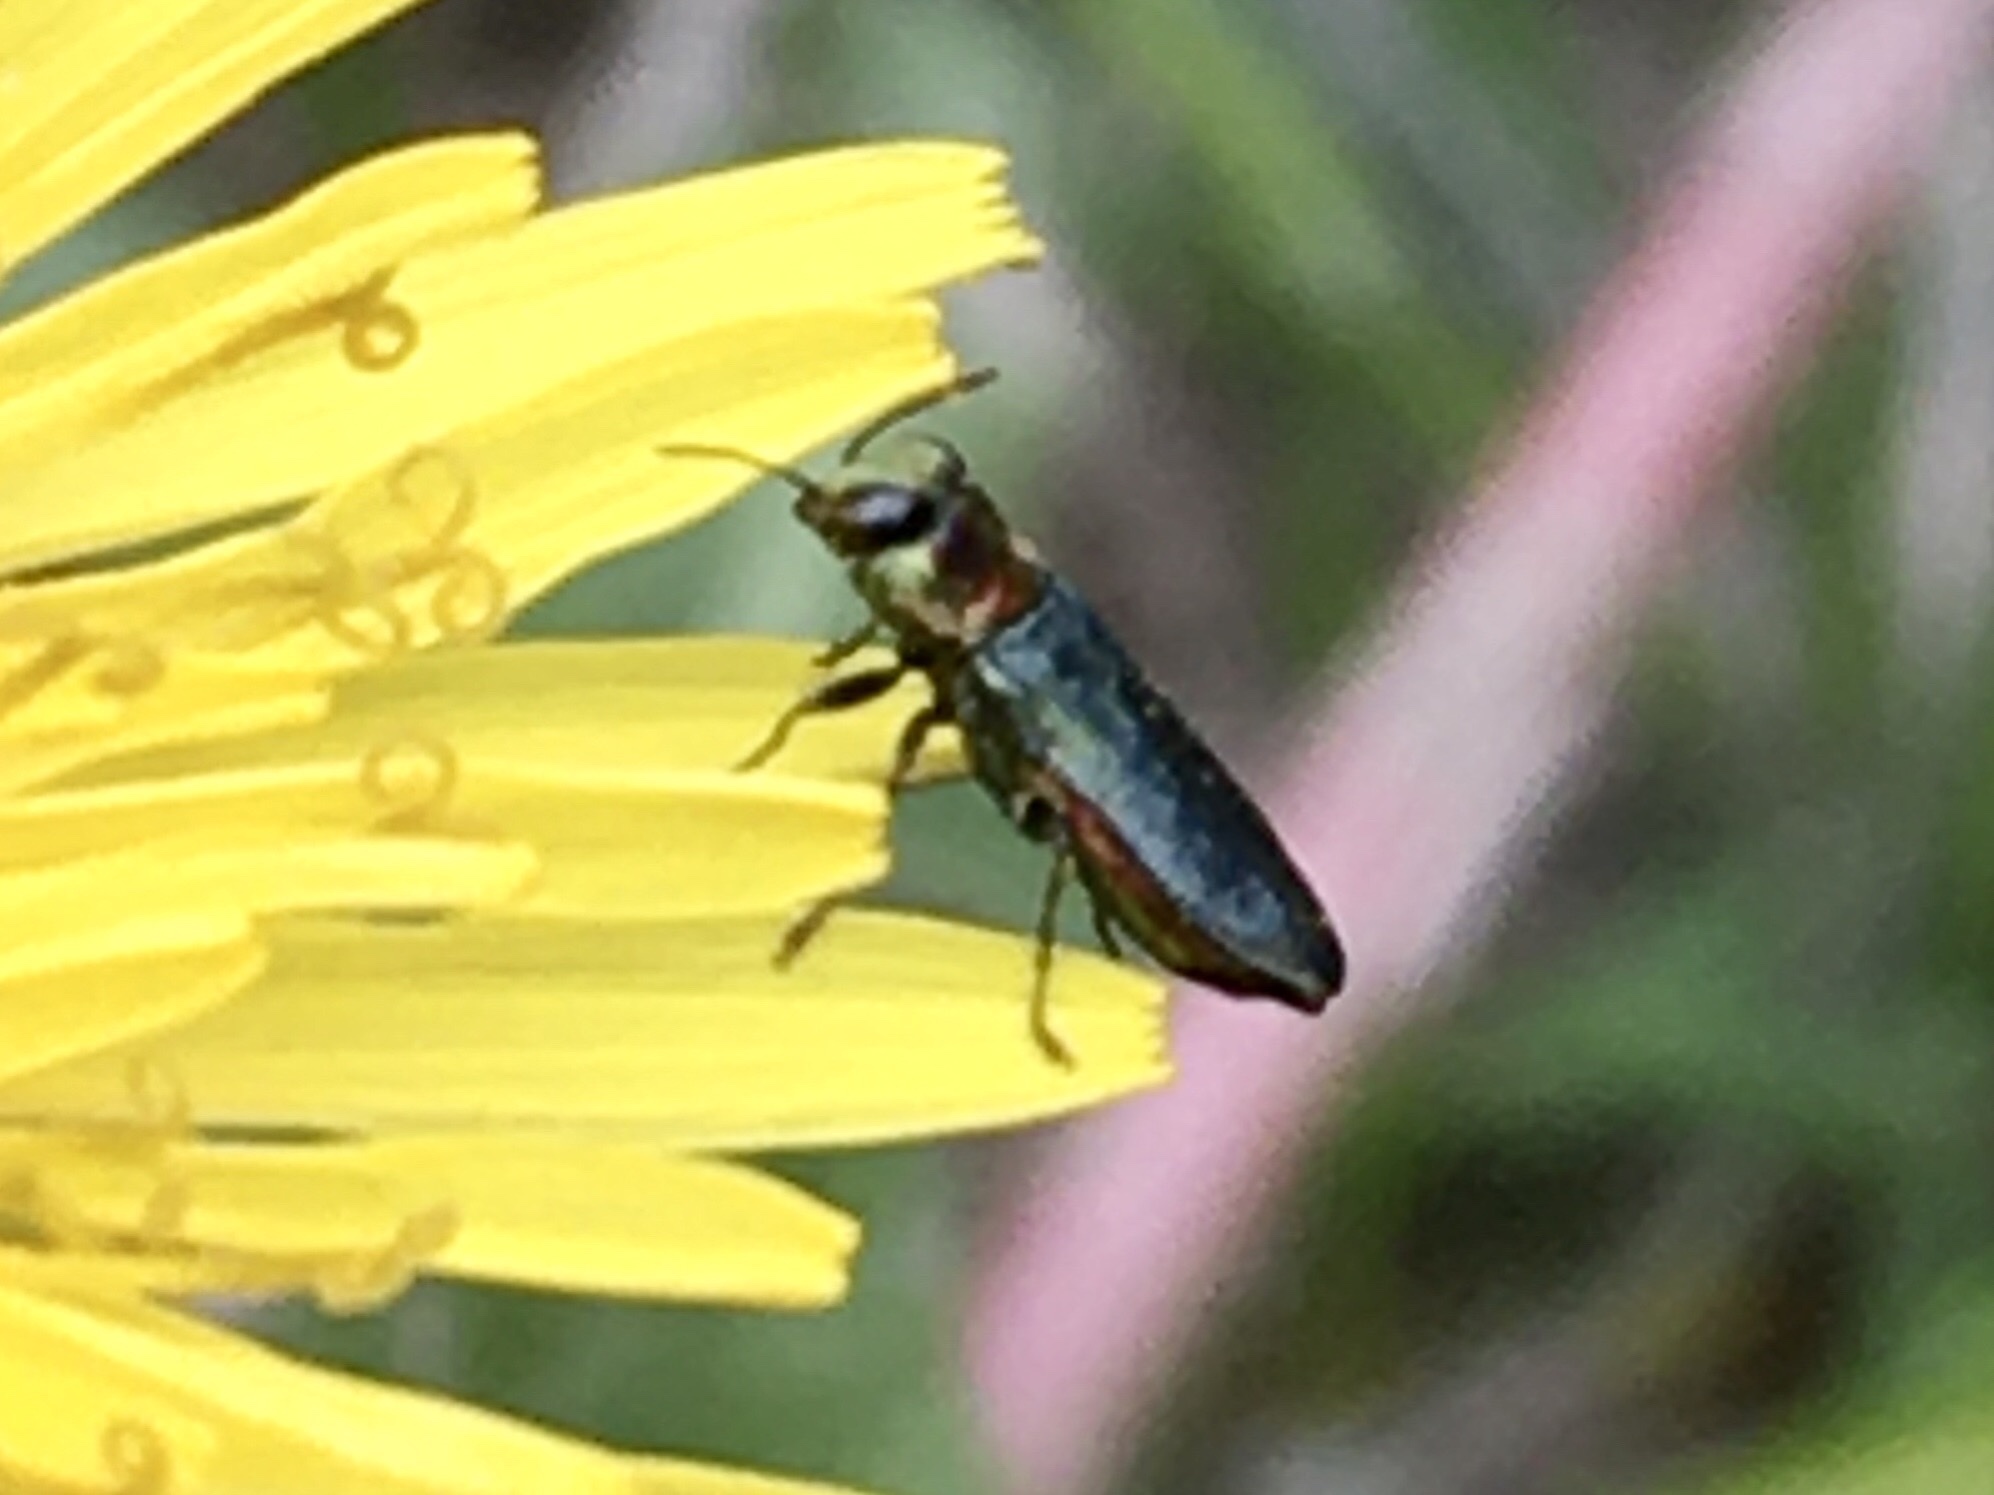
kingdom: Animalia
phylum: Arthropoda
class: Insecta
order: Coleoptera
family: Buprestidae
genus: Anthaxia
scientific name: Anthaxia nitidula
